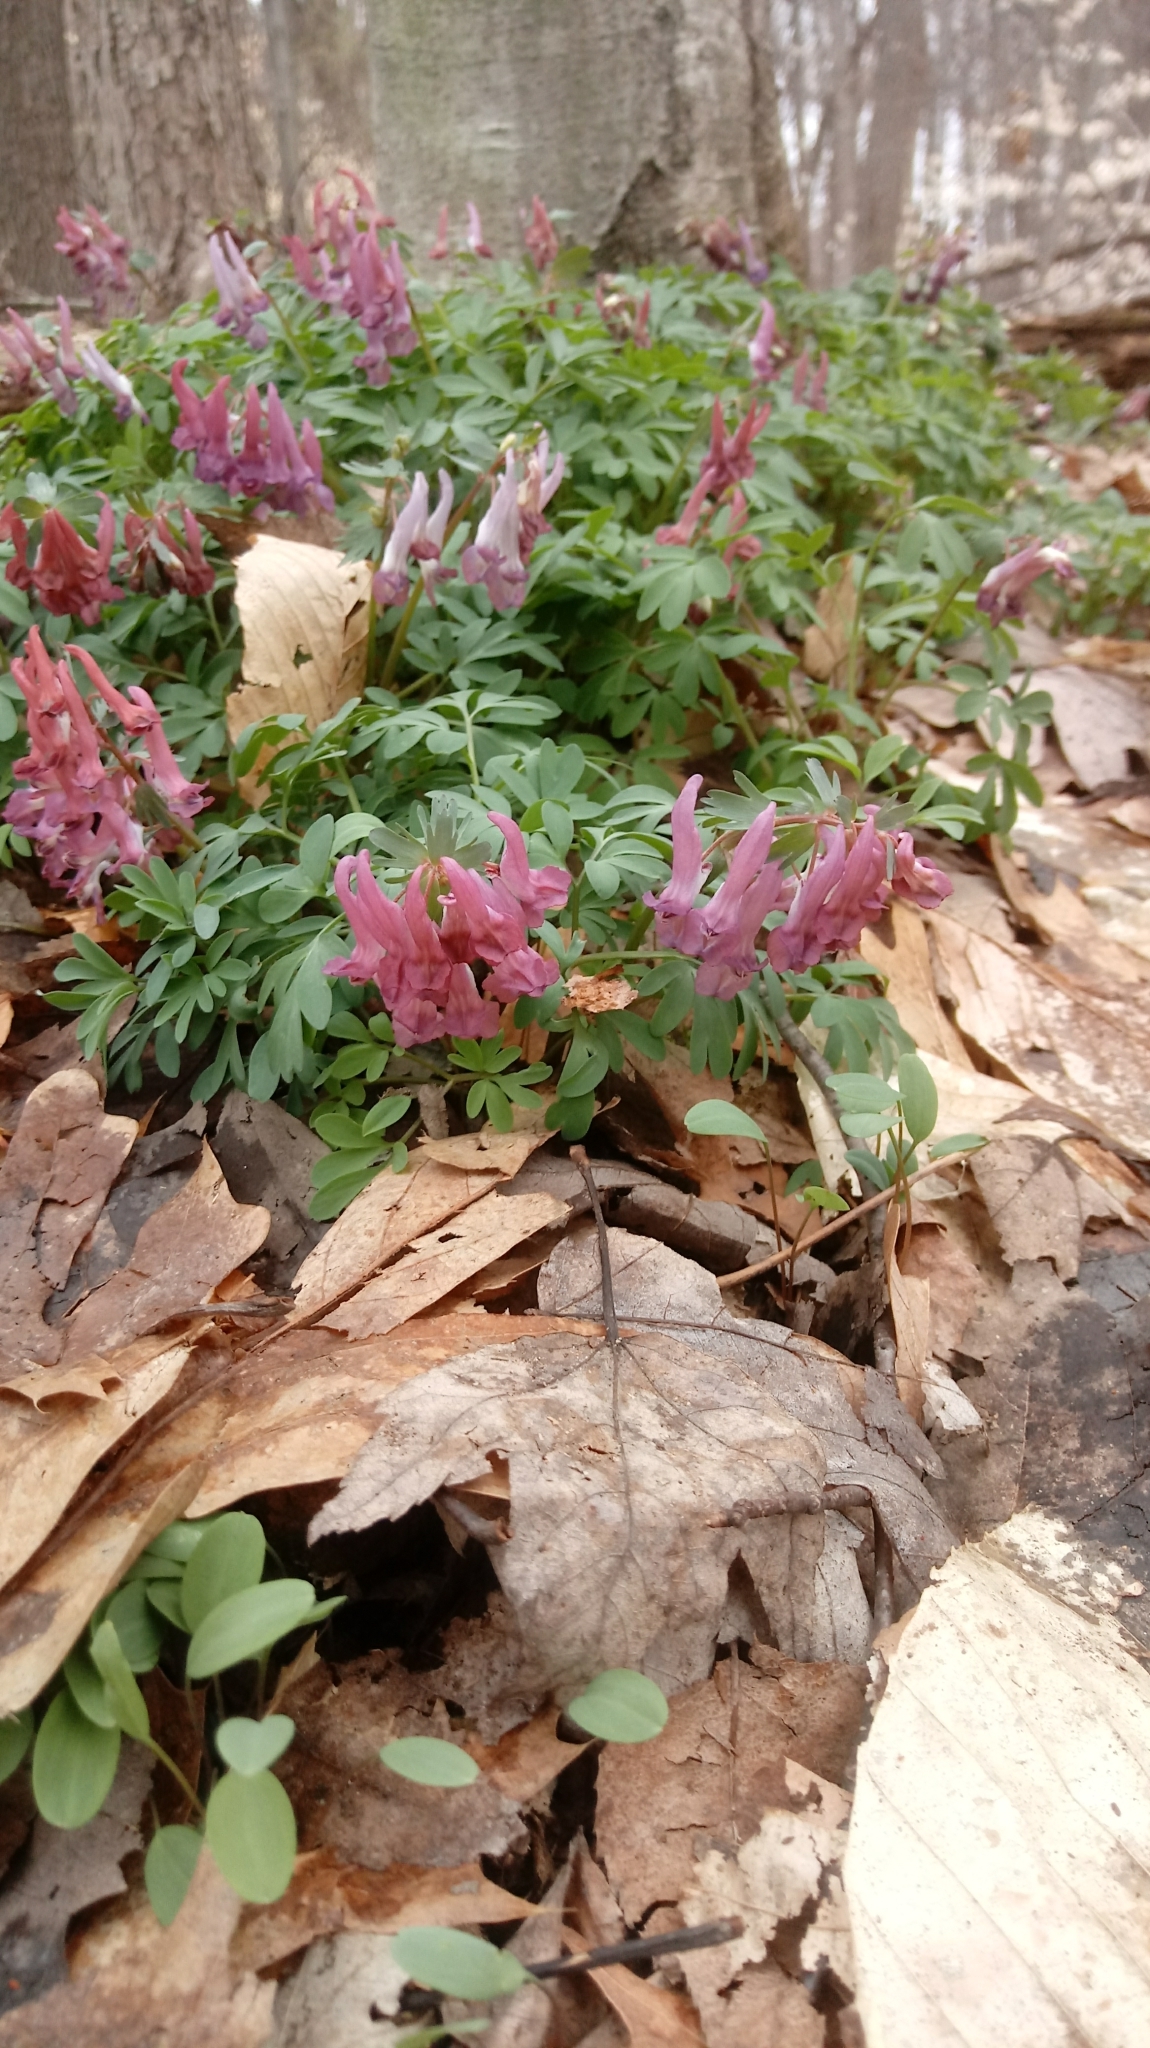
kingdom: Plantae
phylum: Tracheophyta
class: Magnoliopsida
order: Ranunculales
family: Papaveraceae
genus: Corydalis
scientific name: Corydalis solida
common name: Bird-in-a-bush
